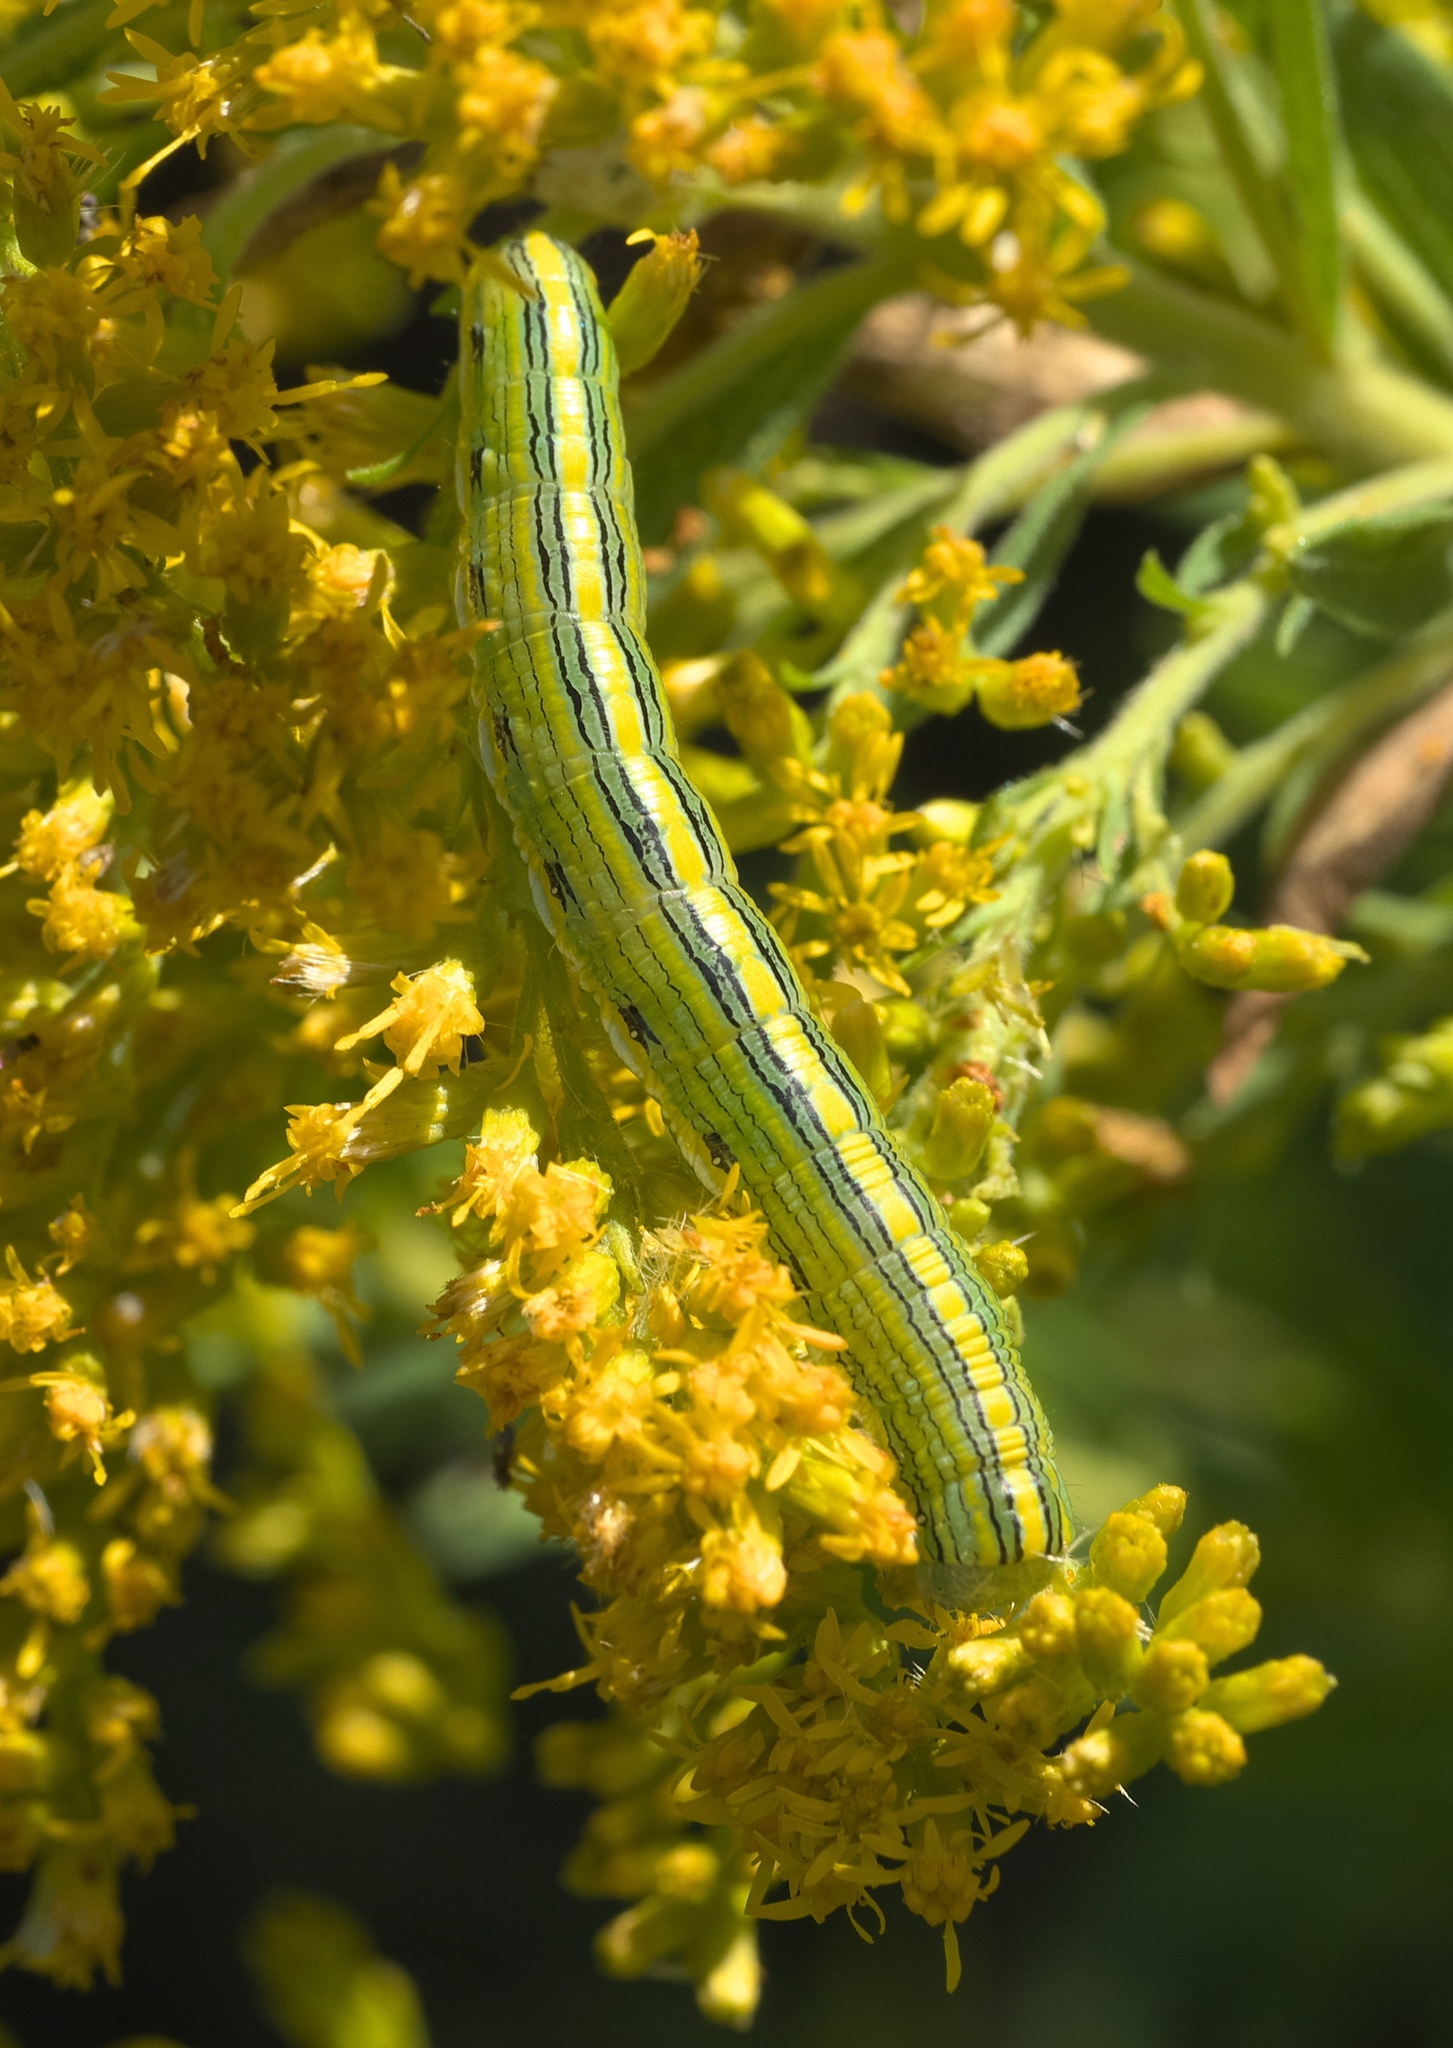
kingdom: Animalia
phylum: Arthropoda
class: Insecta
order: Lepidoptera
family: Noctuidae
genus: Cucullia
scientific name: Cucullia asteroides
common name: Asteroid moth
